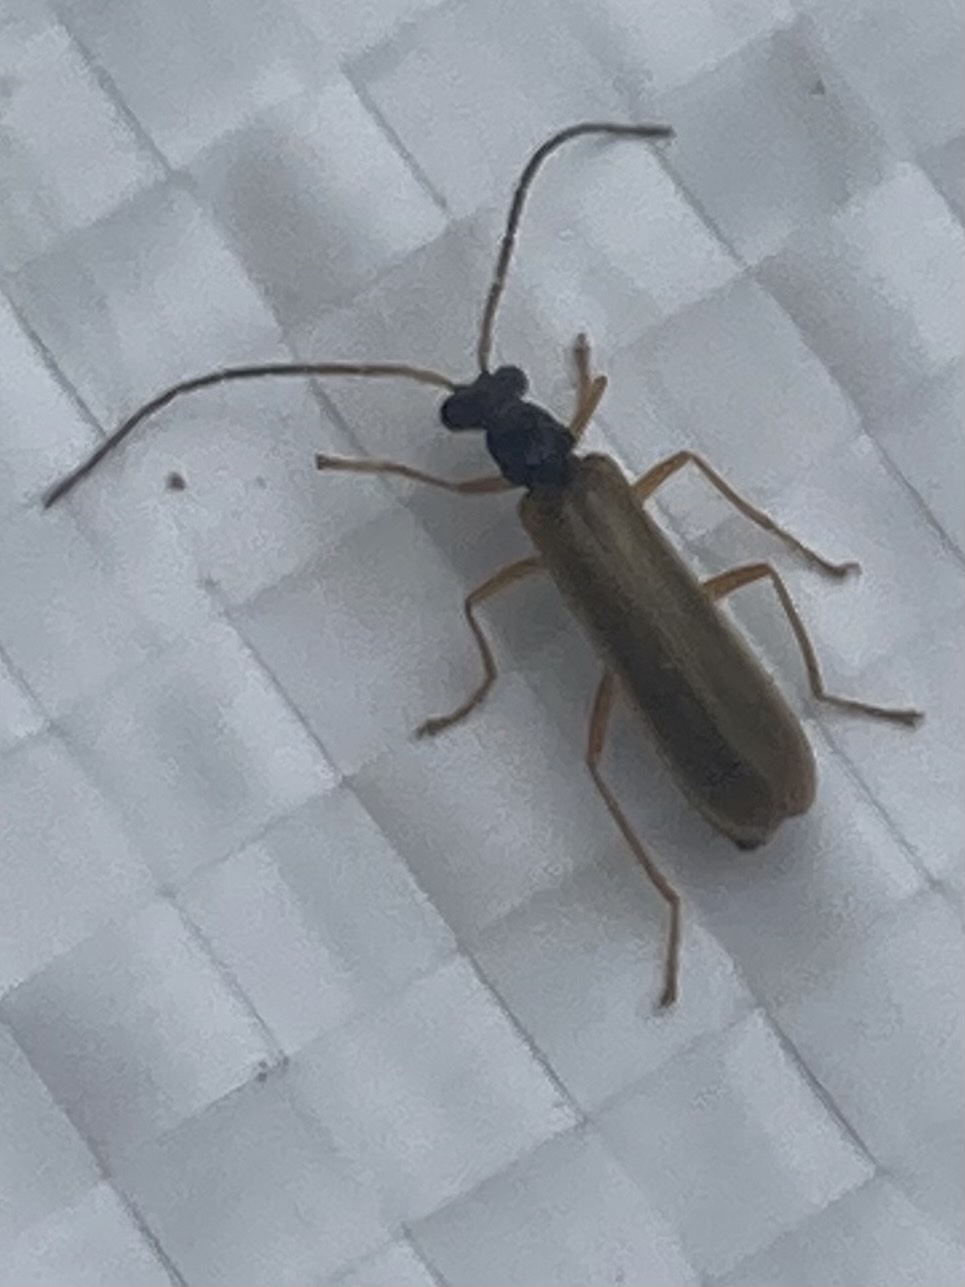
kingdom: Animalia
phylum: Arthropoda
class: Insecta
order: Coleoptera
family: Cantharidae
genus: Rhagonycha
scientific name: Rhagonycha lignosa
